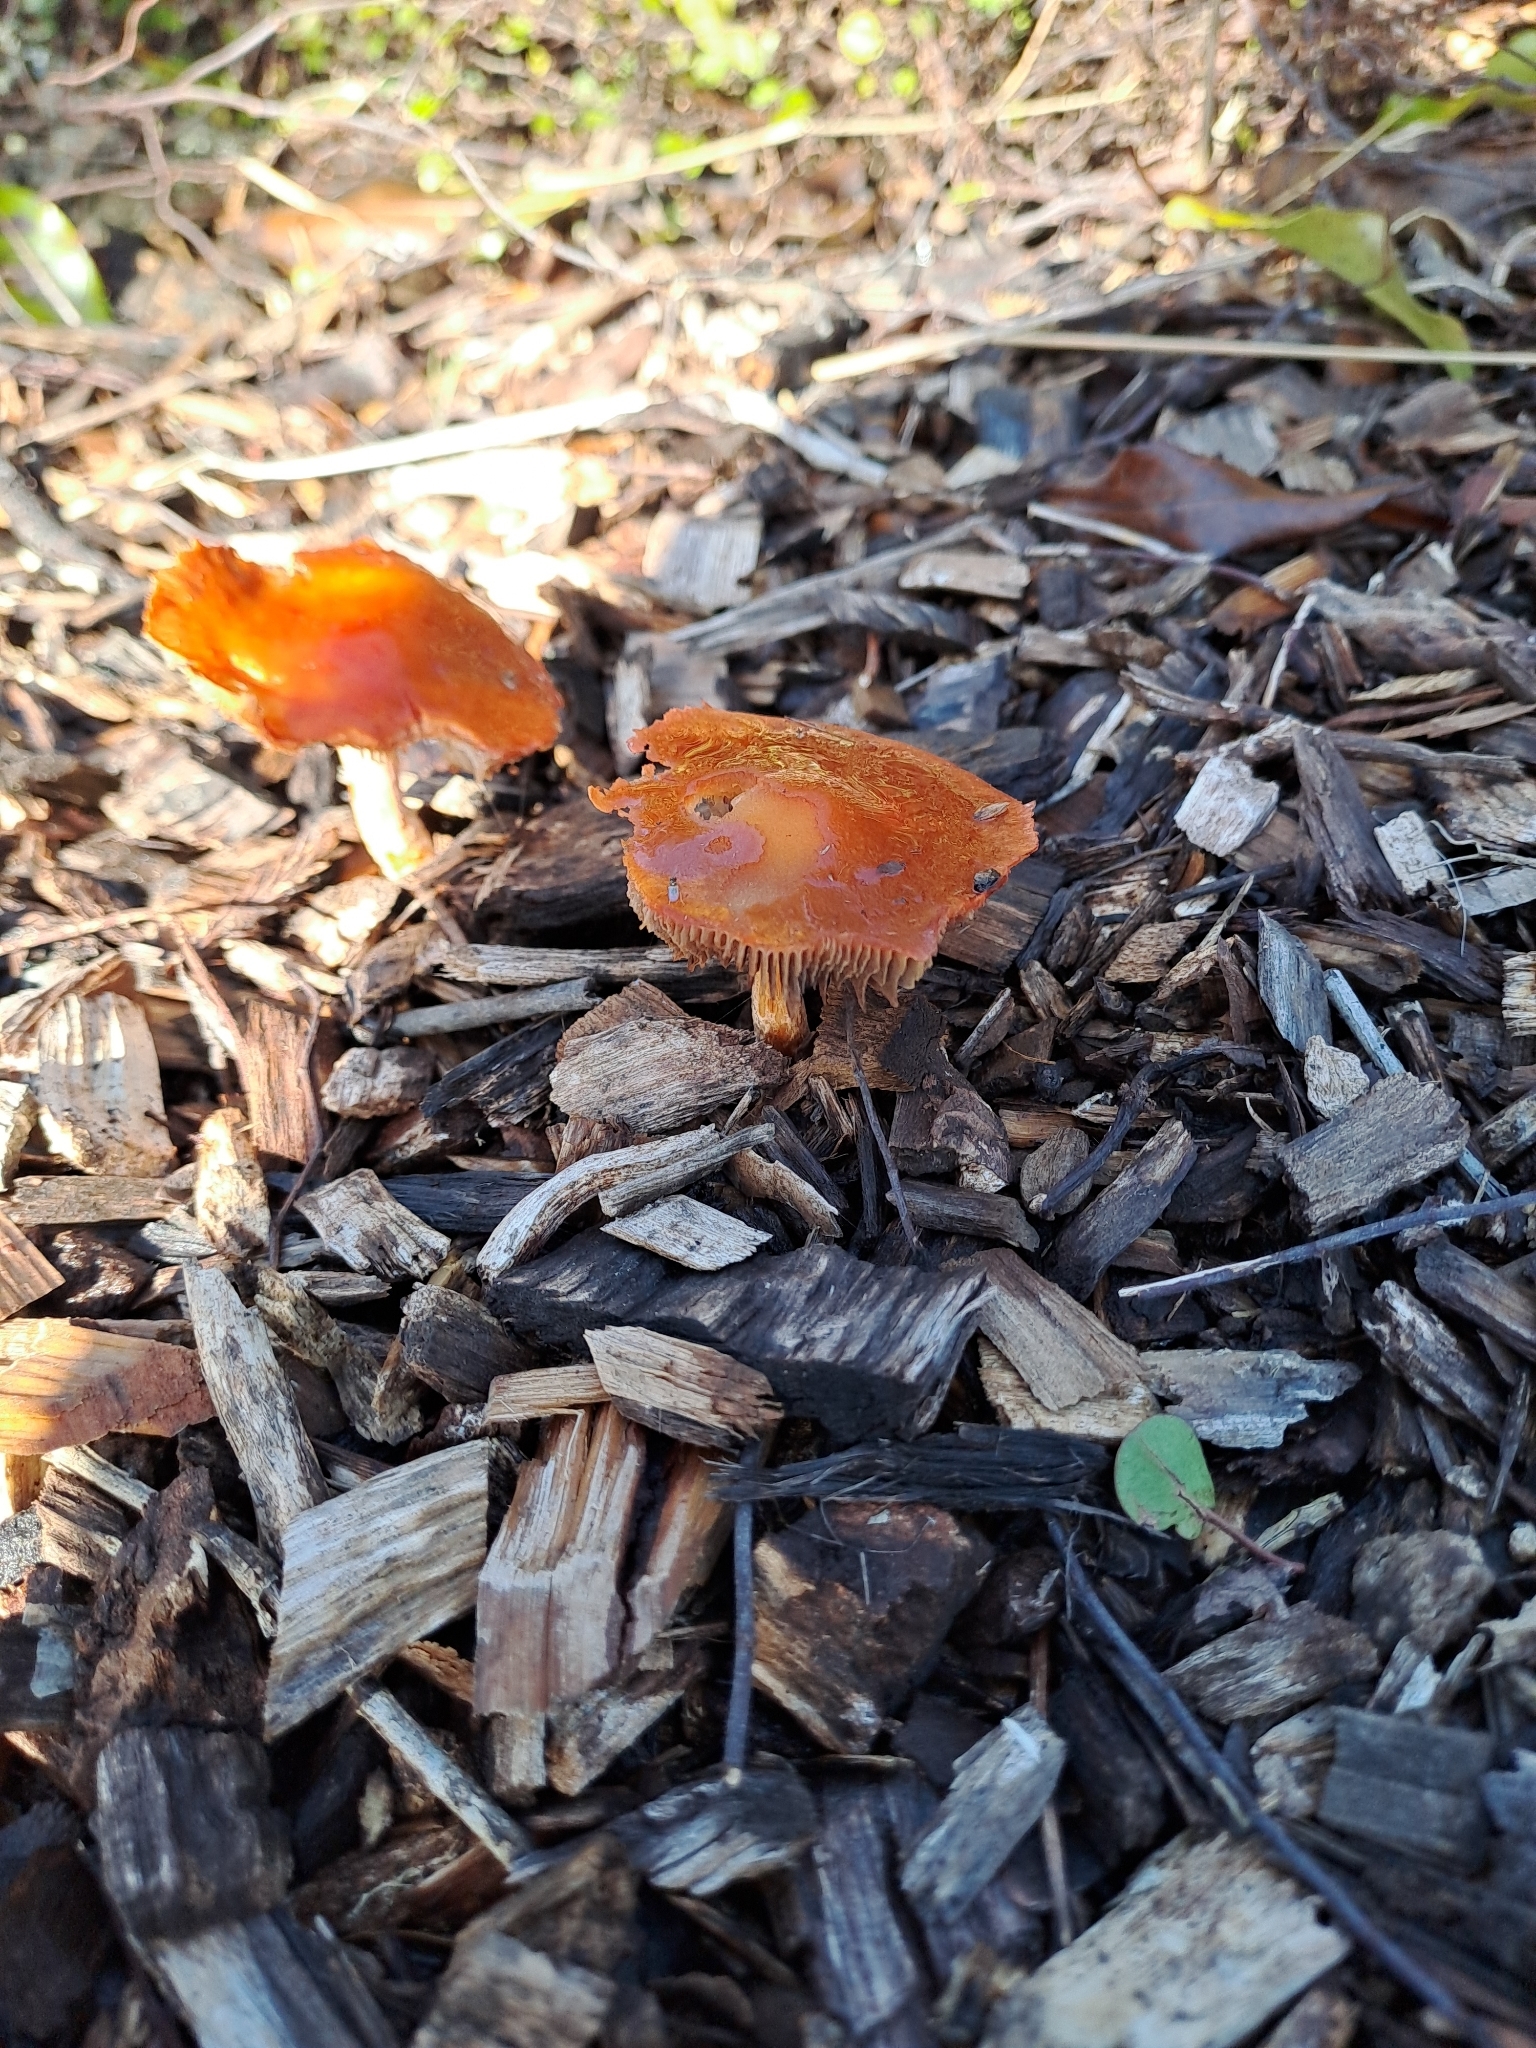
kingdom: Fungi
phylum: Basidiomycota
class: Agaricomycetes
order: Agaricales
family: Strophariaceae
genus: Leratiomyces
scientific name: Leratiomyces ceres
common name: Redlead roundhead
